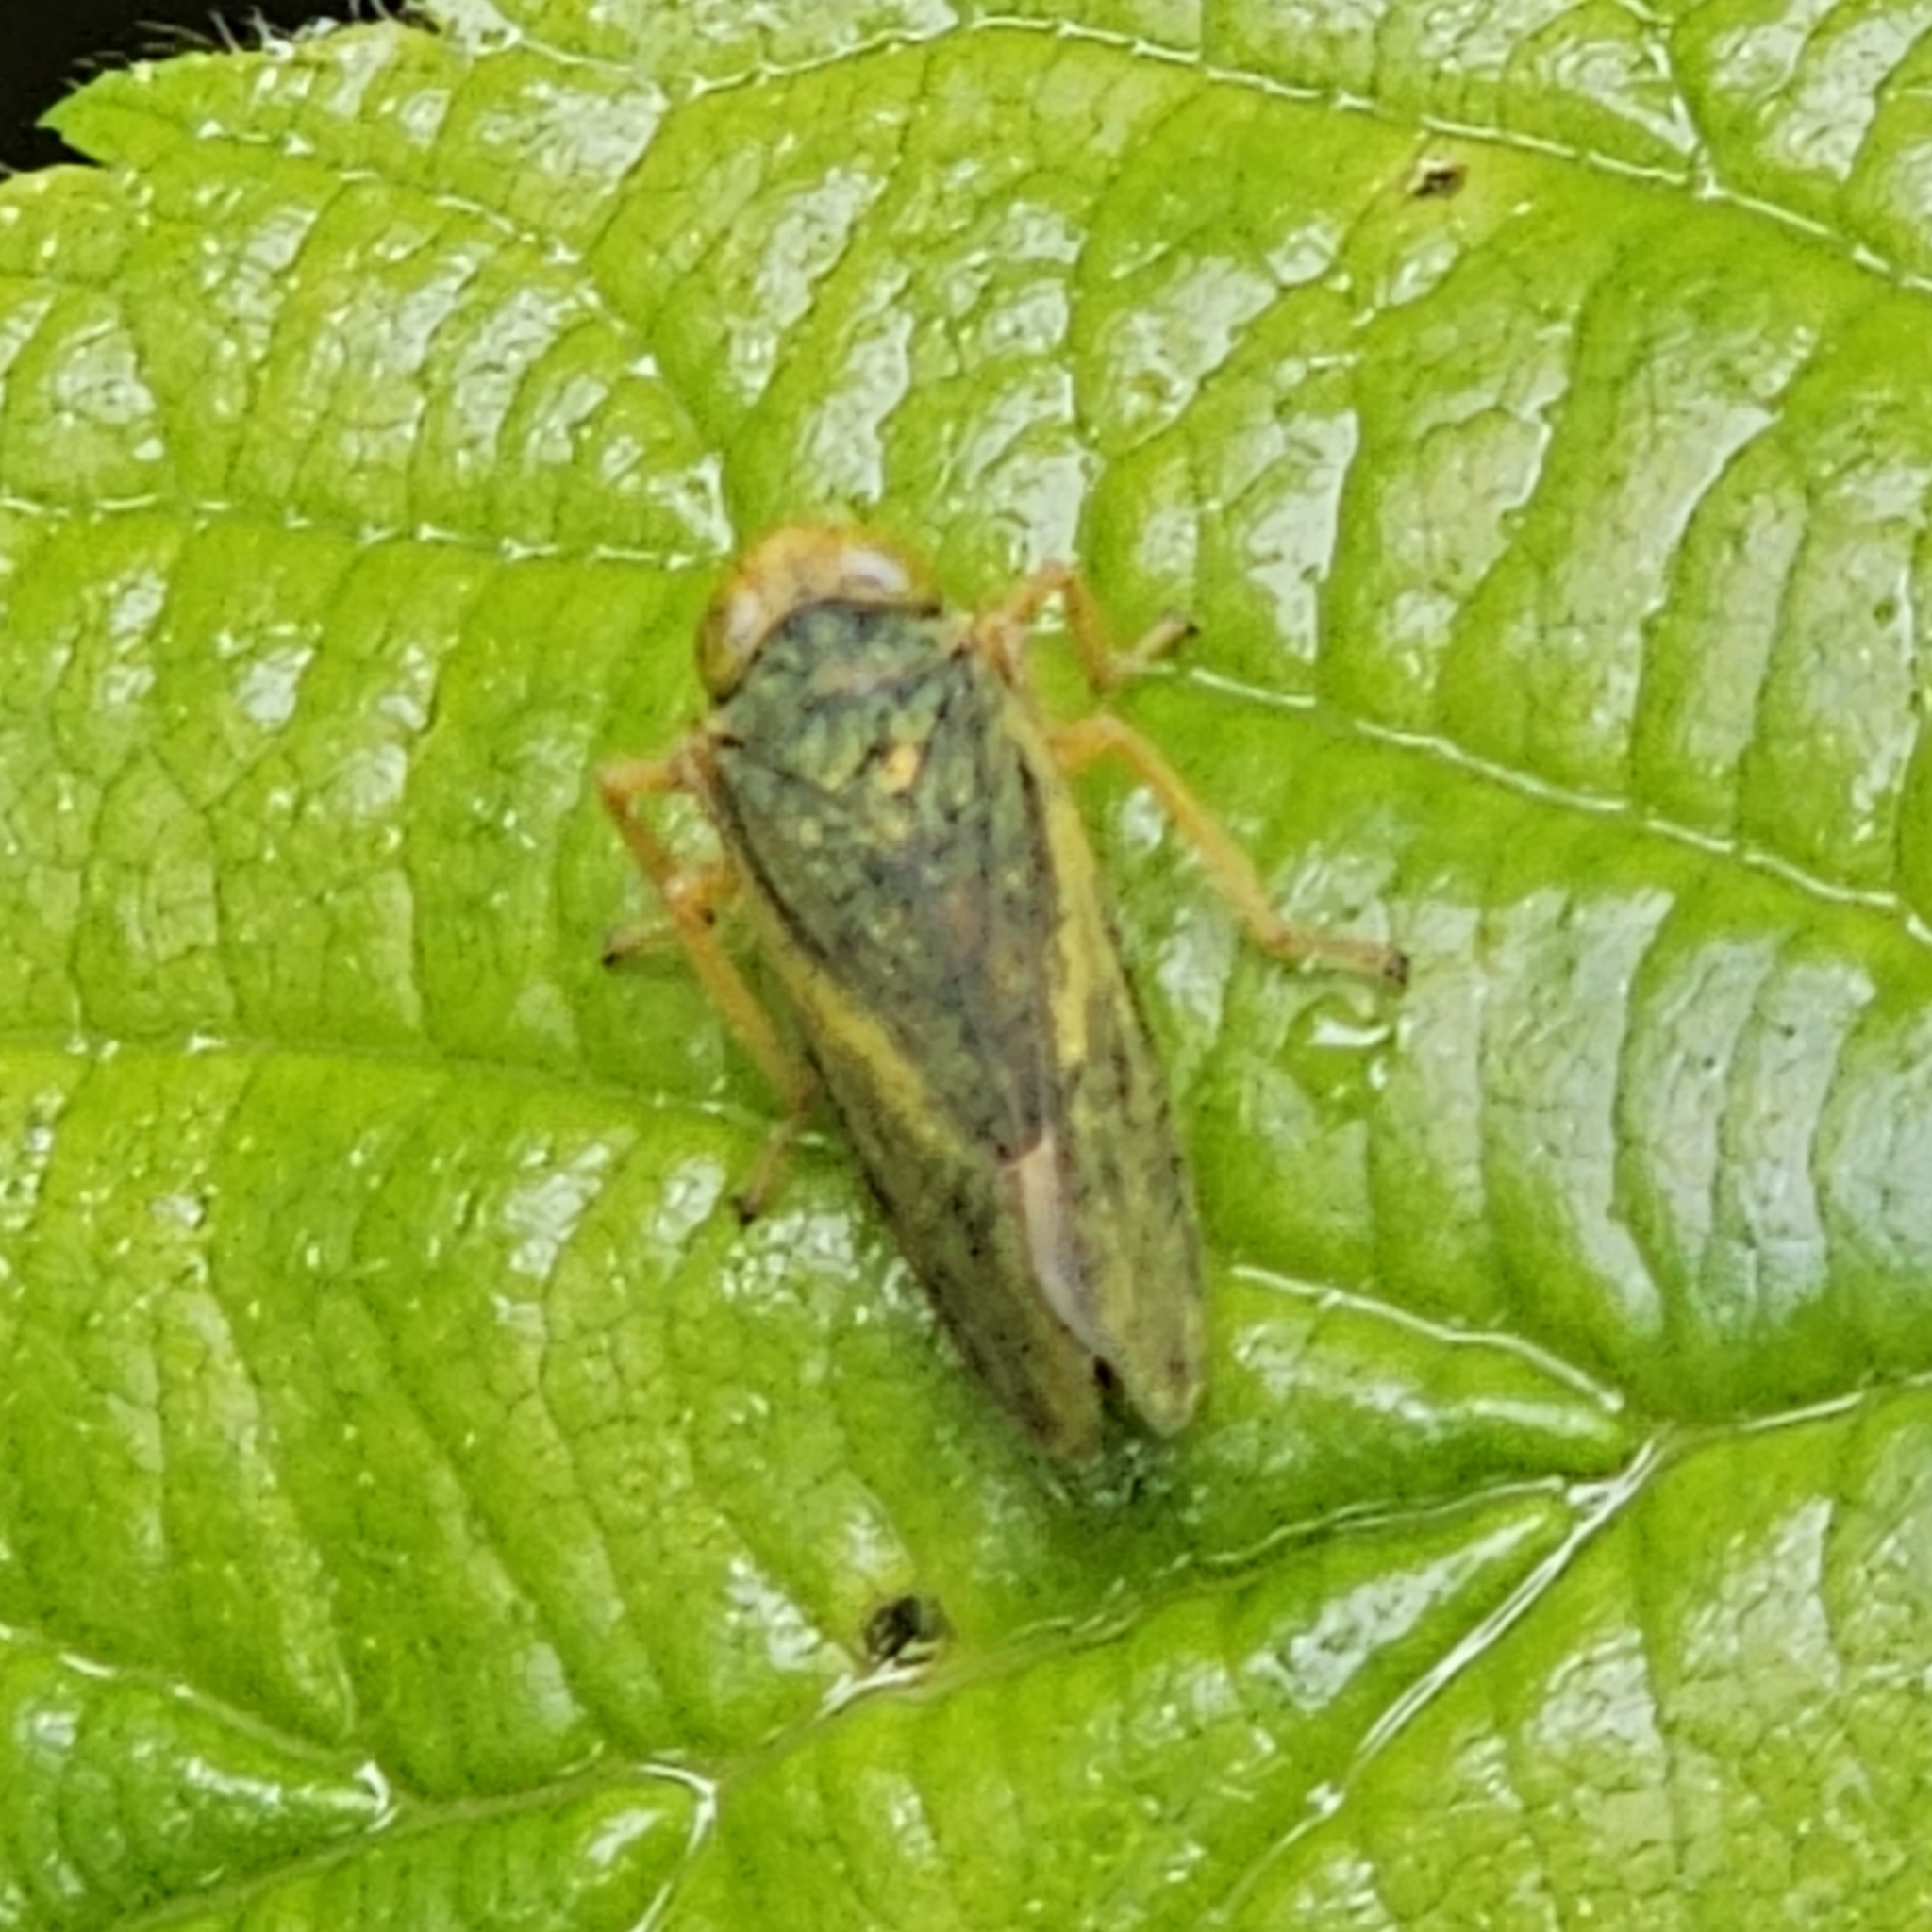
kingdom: Animalia
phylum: Arthropoda
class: Insecta
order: Hemiptera
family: Cicadellidae
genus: Jikradia
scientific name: Jikradia olitoria
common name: Coppery leafhopper
